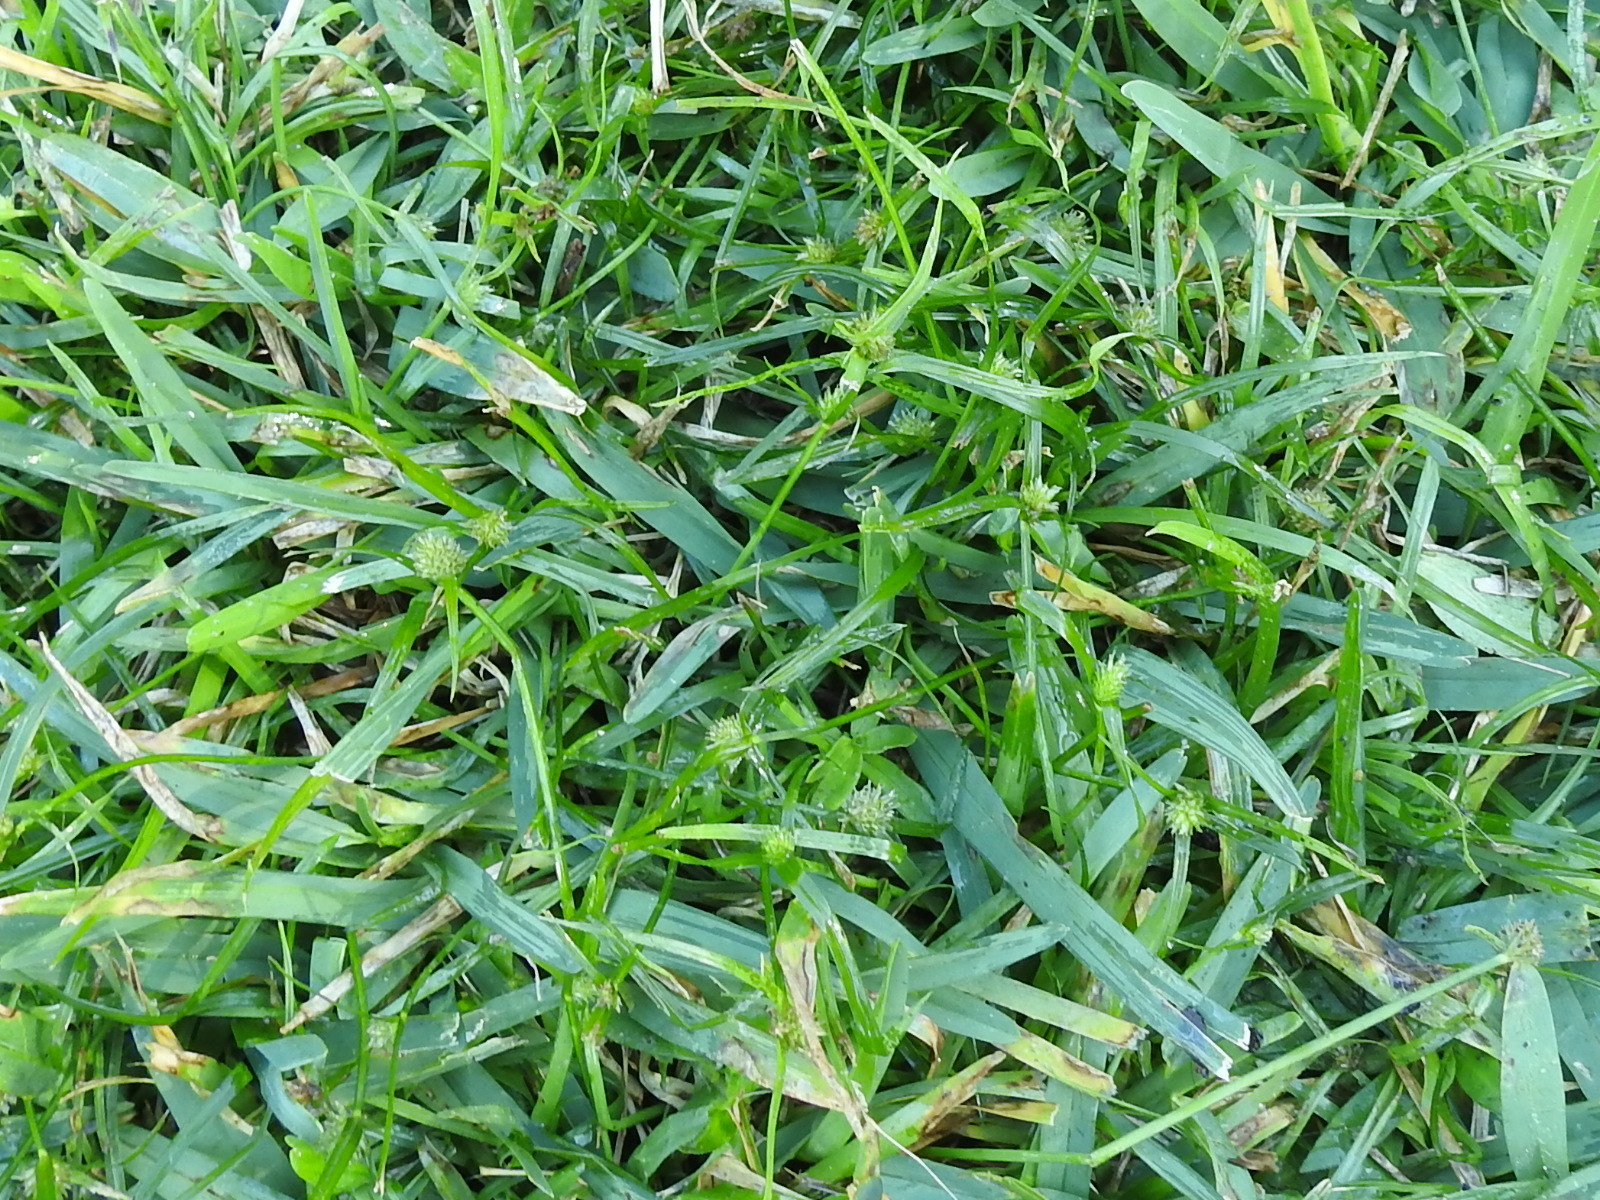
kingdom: Plantae
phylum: Tracheophyta
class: Liliopsida
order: Poales
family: Cyperaceae
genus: Cyperus
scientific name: Cyperus brevifolius
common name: Globe kyllinga
